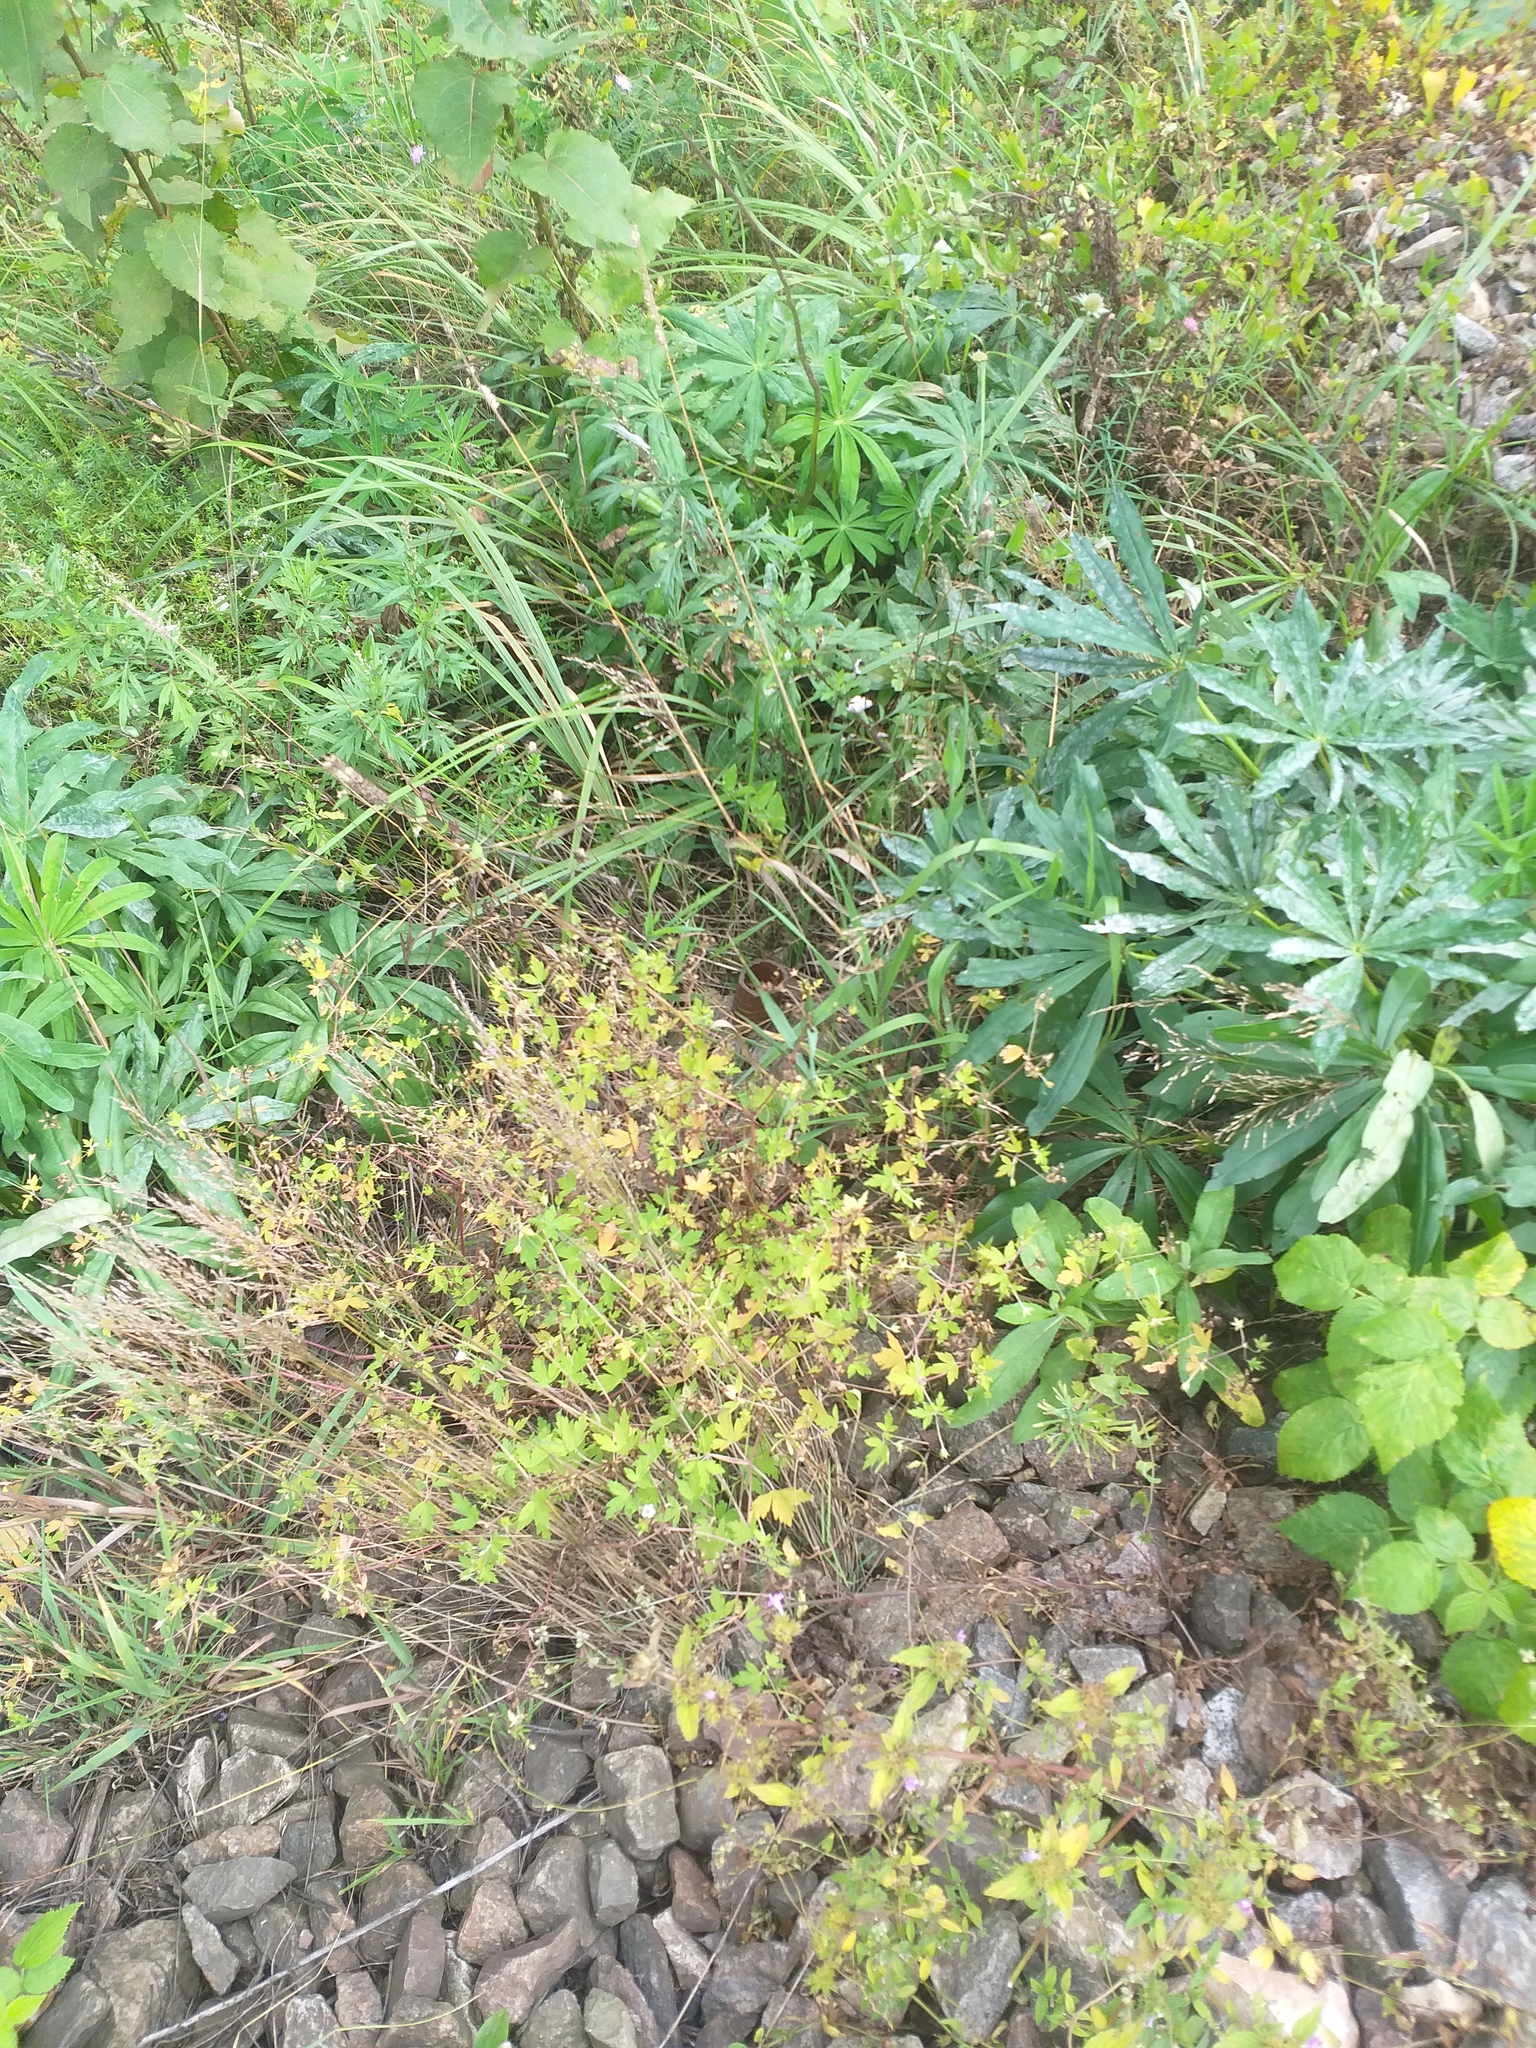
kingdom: Plantae
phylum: Tracheophyta
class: Magnoliopsida
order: Geraniales
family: Geraniaceae
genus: Geranium
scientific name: Geranium sibiricum
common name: Siberian crane's-bill
